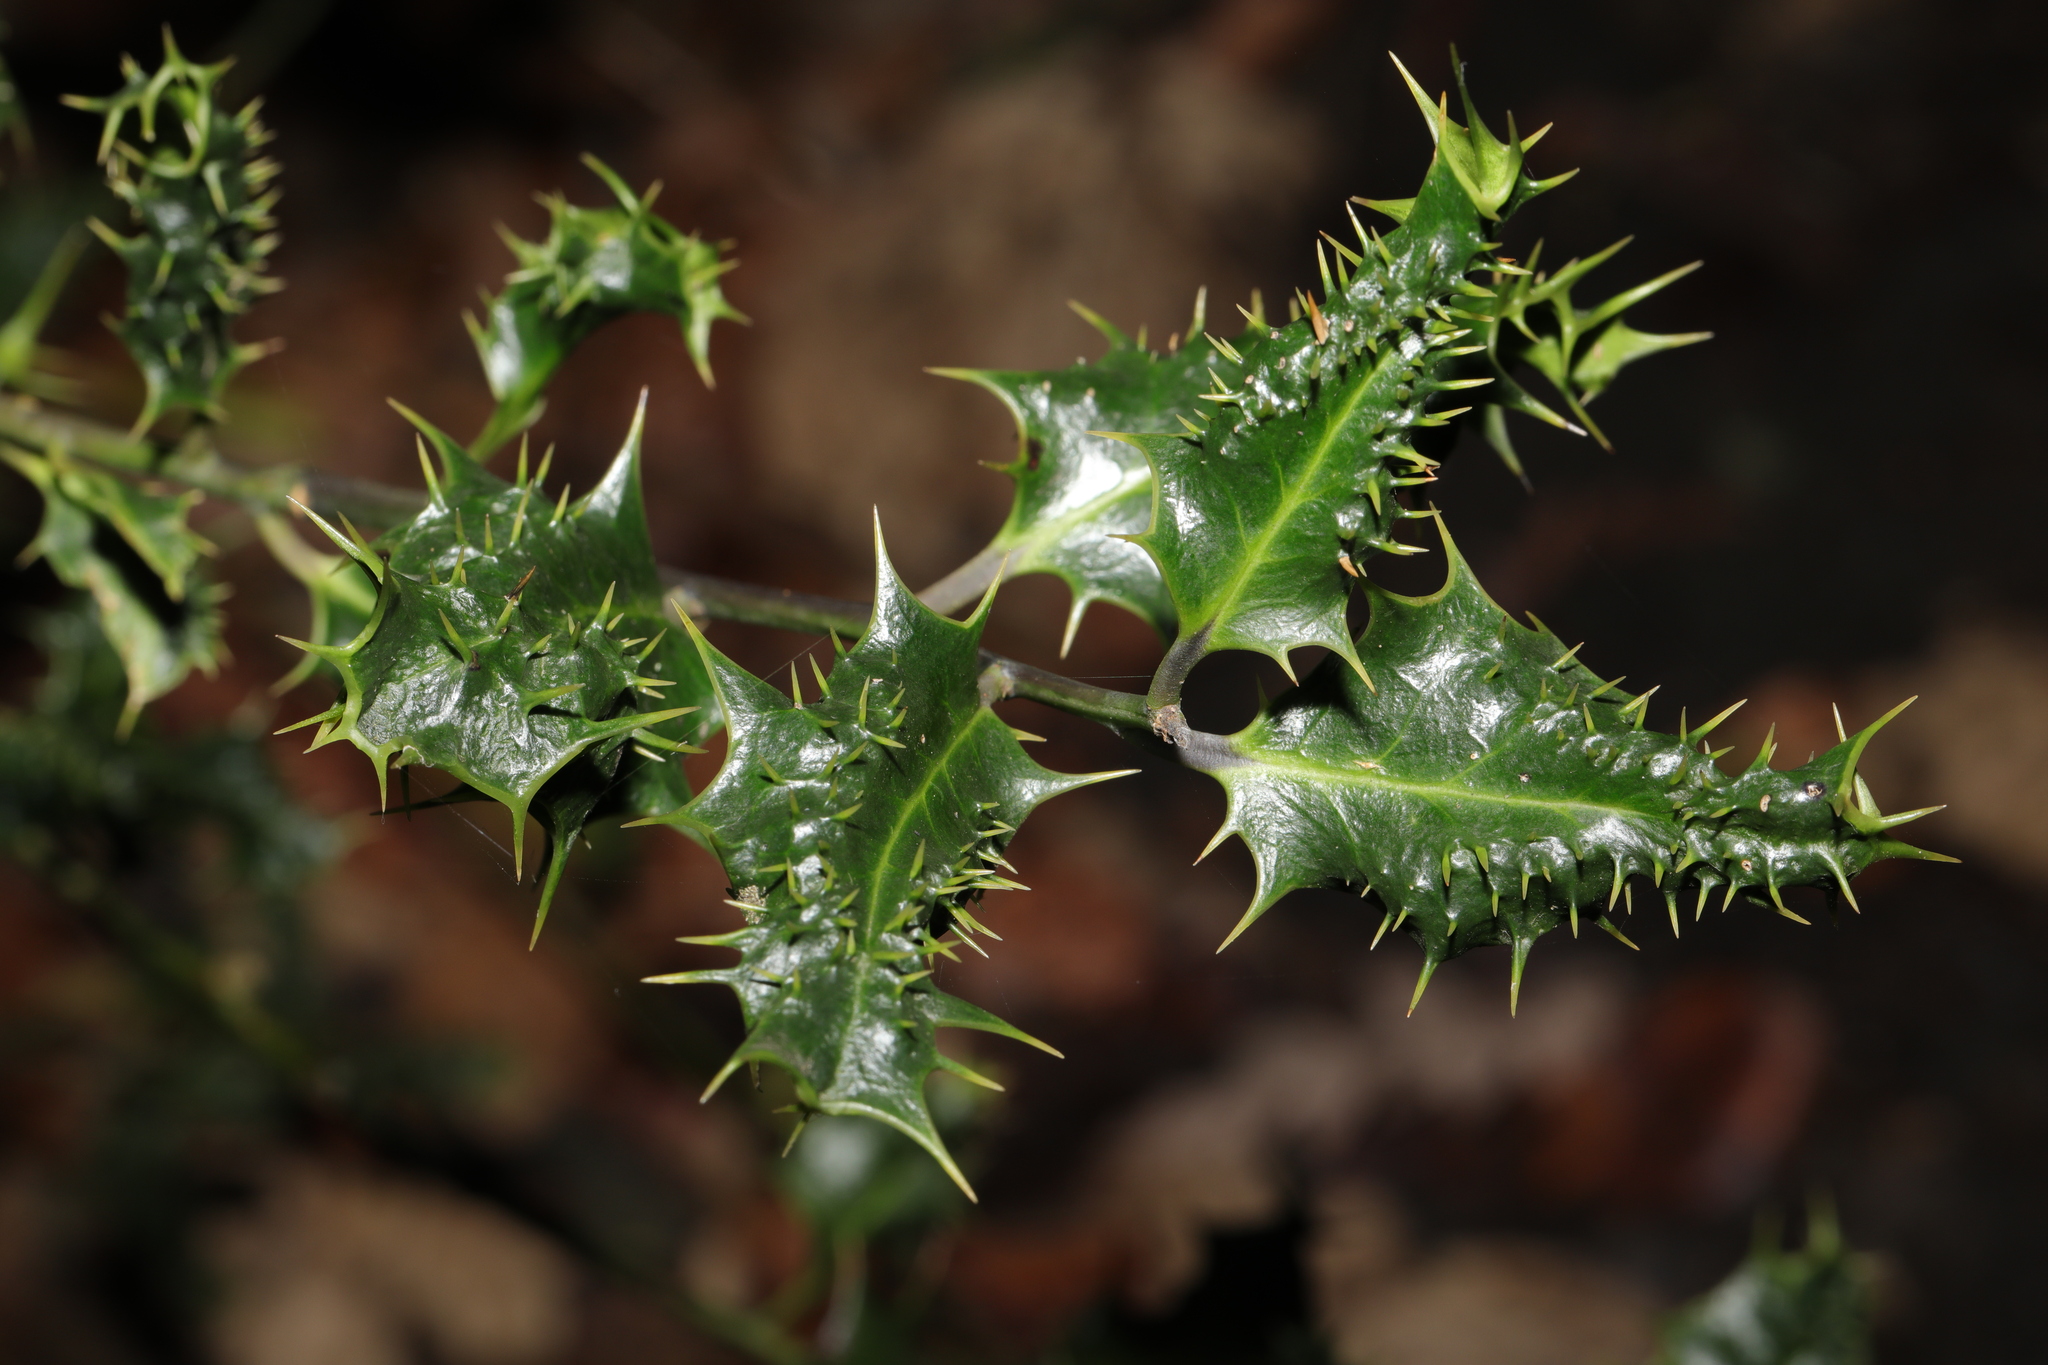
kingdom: Plantae
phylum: Tracheophyta
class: Magnoliopsida
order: Aquifoliales
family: Aquifoliaceae
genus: Ilex
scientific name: Ilex aquifolium
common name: English holly
